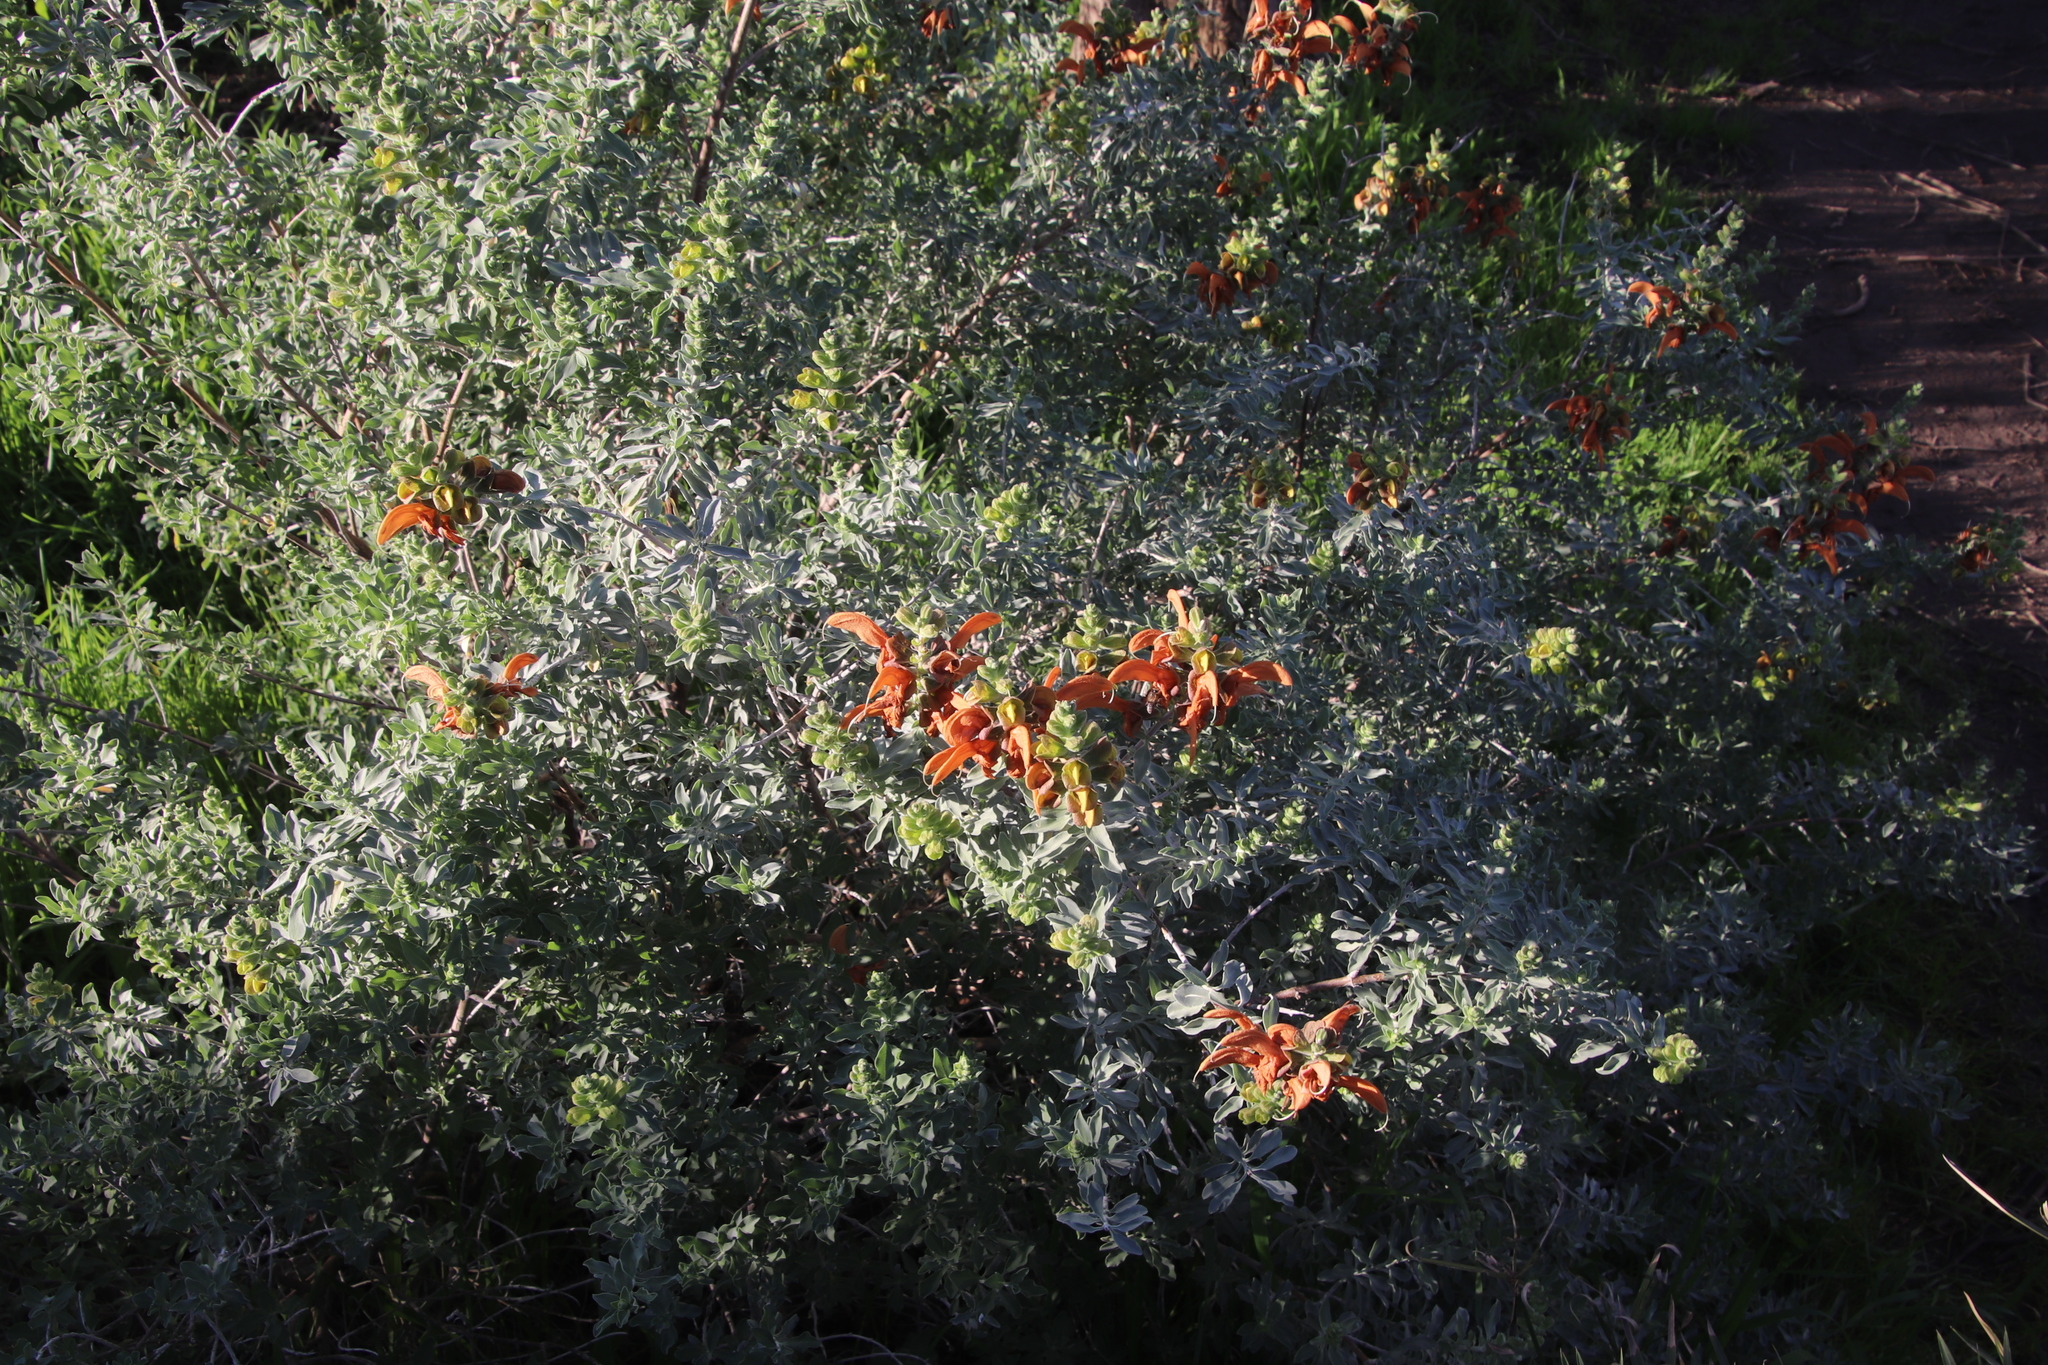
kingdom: Plantae
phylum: Tracheophyta
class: Magnoliopsida
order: Lamiales
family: Lamiaceae
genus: Salvia
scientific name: Salvia aurea
